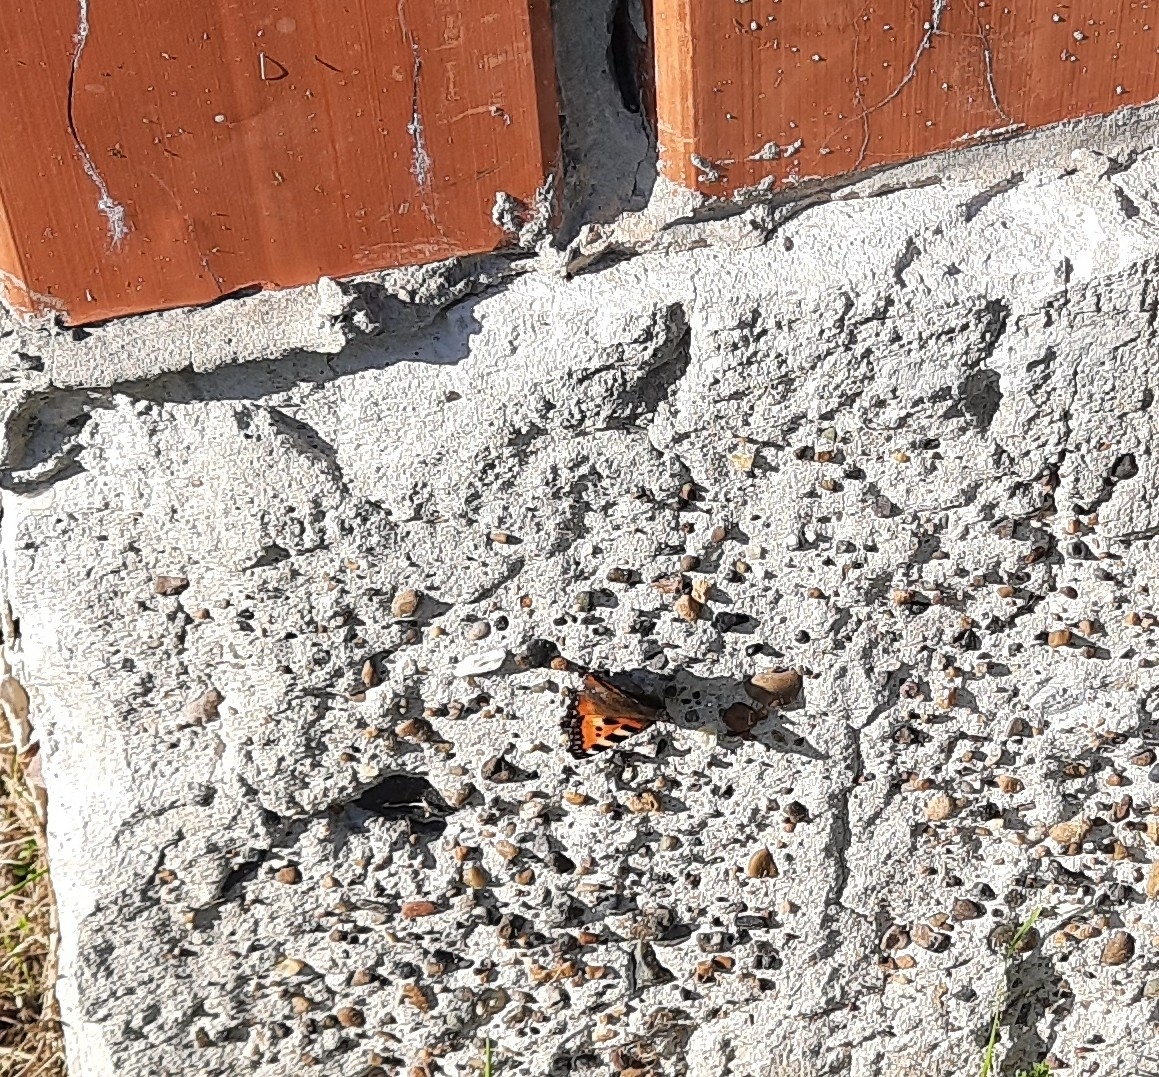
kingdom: Animalia
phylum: Arthropoda
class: Insecta
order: Lepidoptera
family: Nymphalidae
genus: Aglais
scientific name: Aglais urticae
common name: Small tortoiseshell
